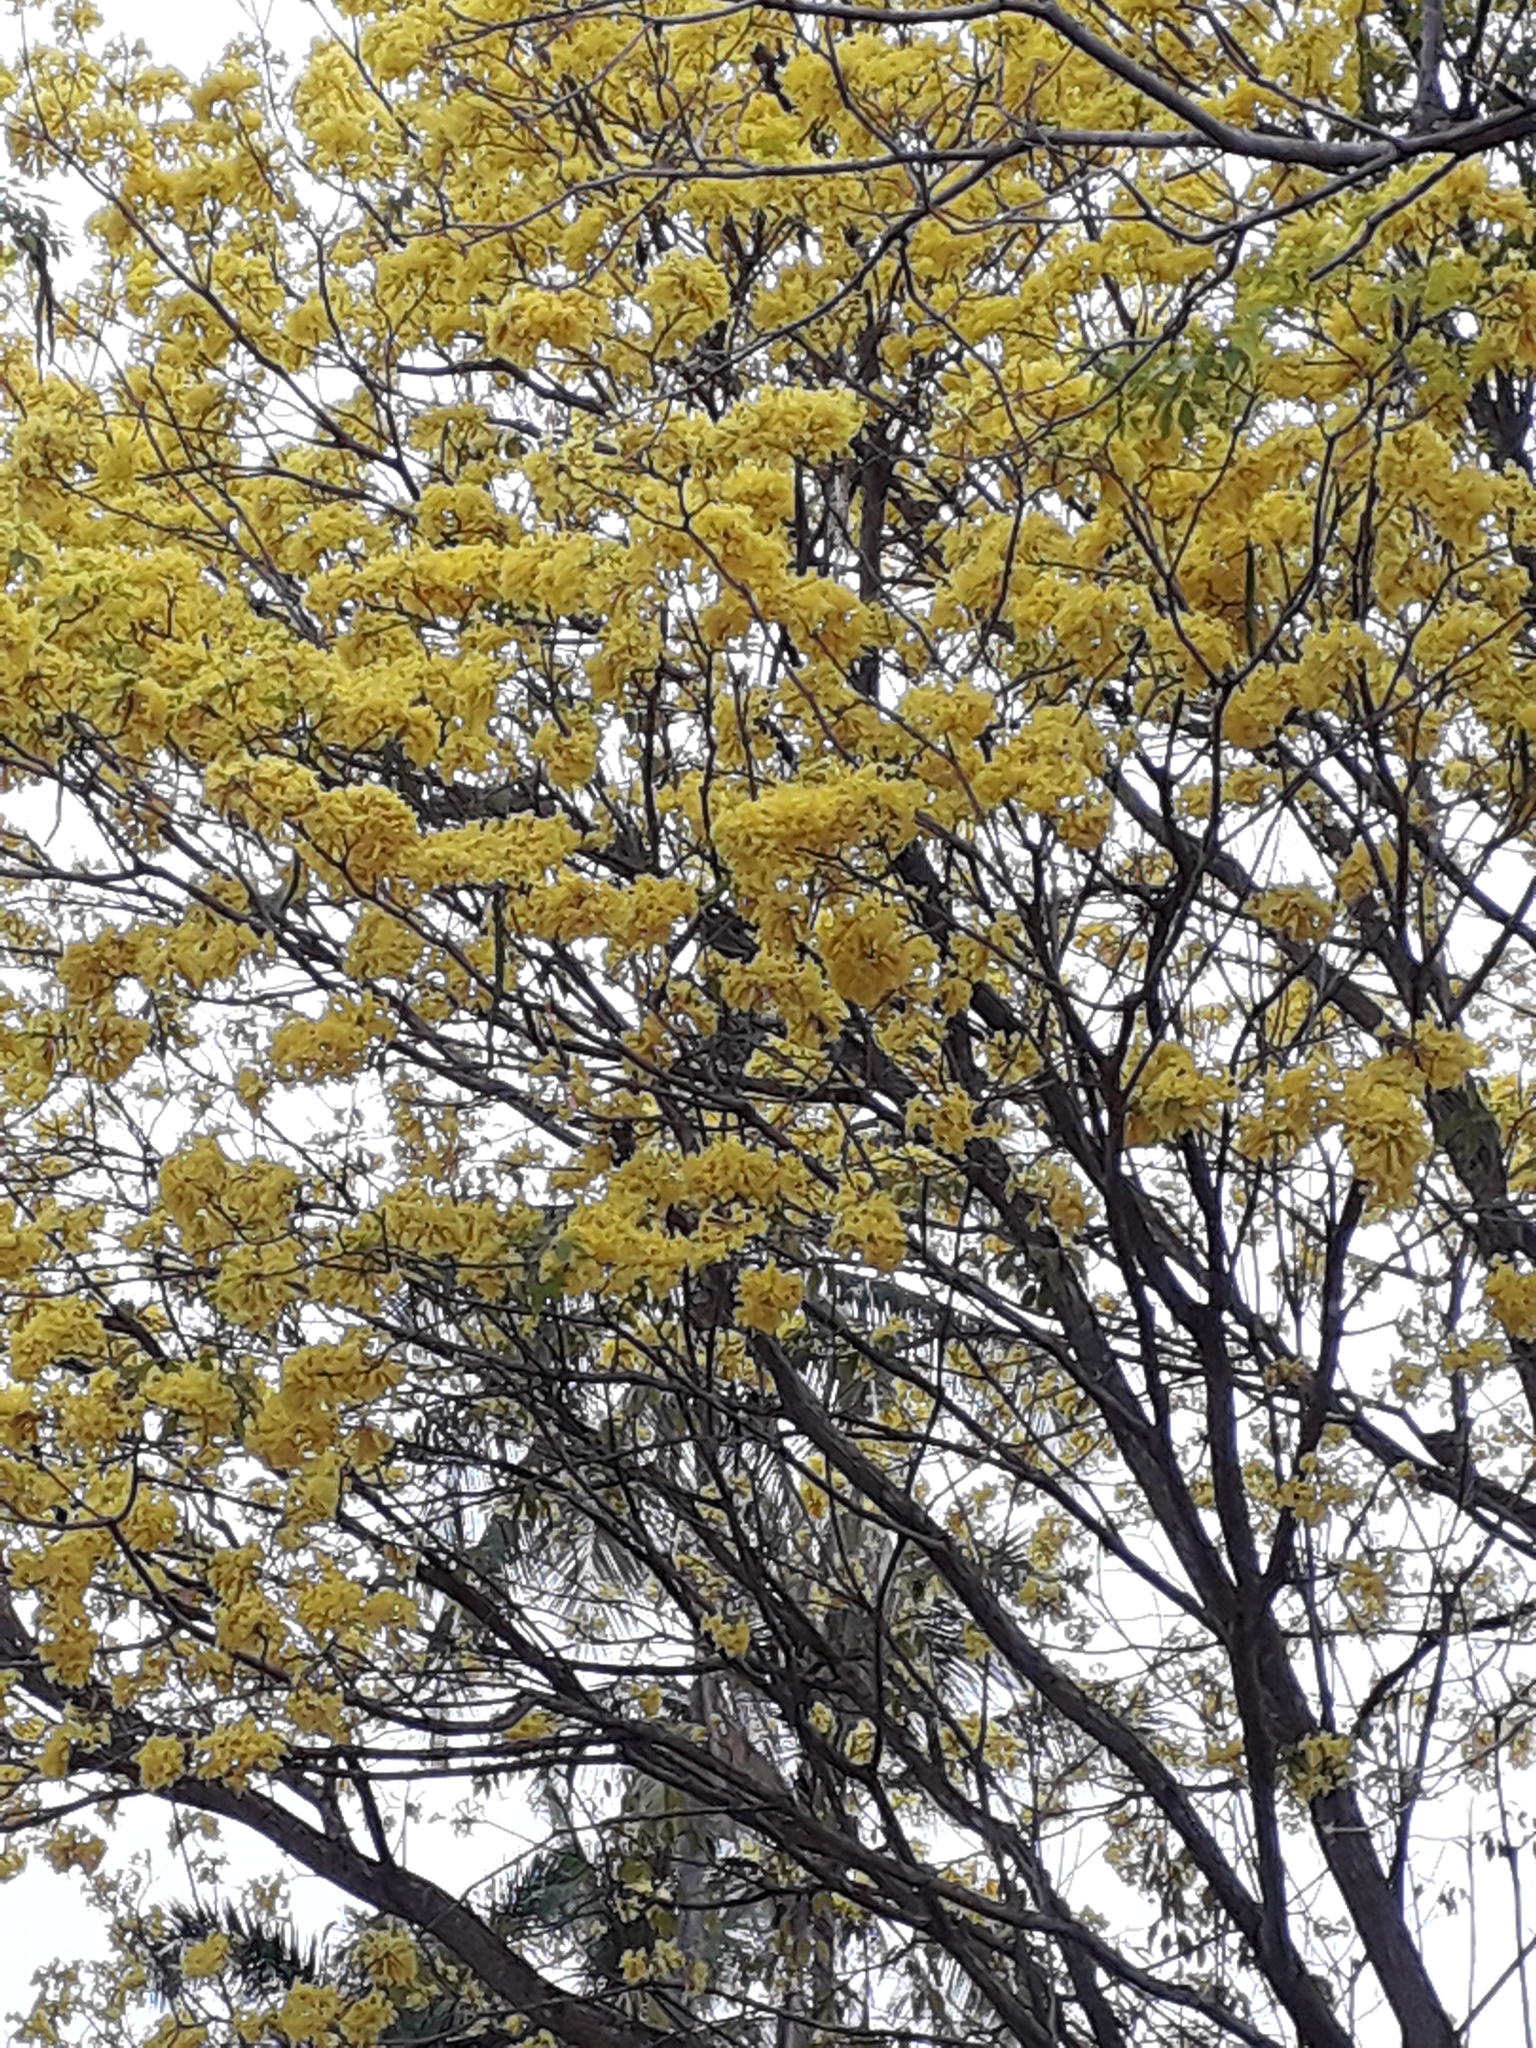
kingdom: Plantae
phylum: Tracheophyta
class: Magnoliopsida
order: Lamiales
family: Bignoniaceae
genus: Handroanthus
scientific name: Handroanthus guayacan
